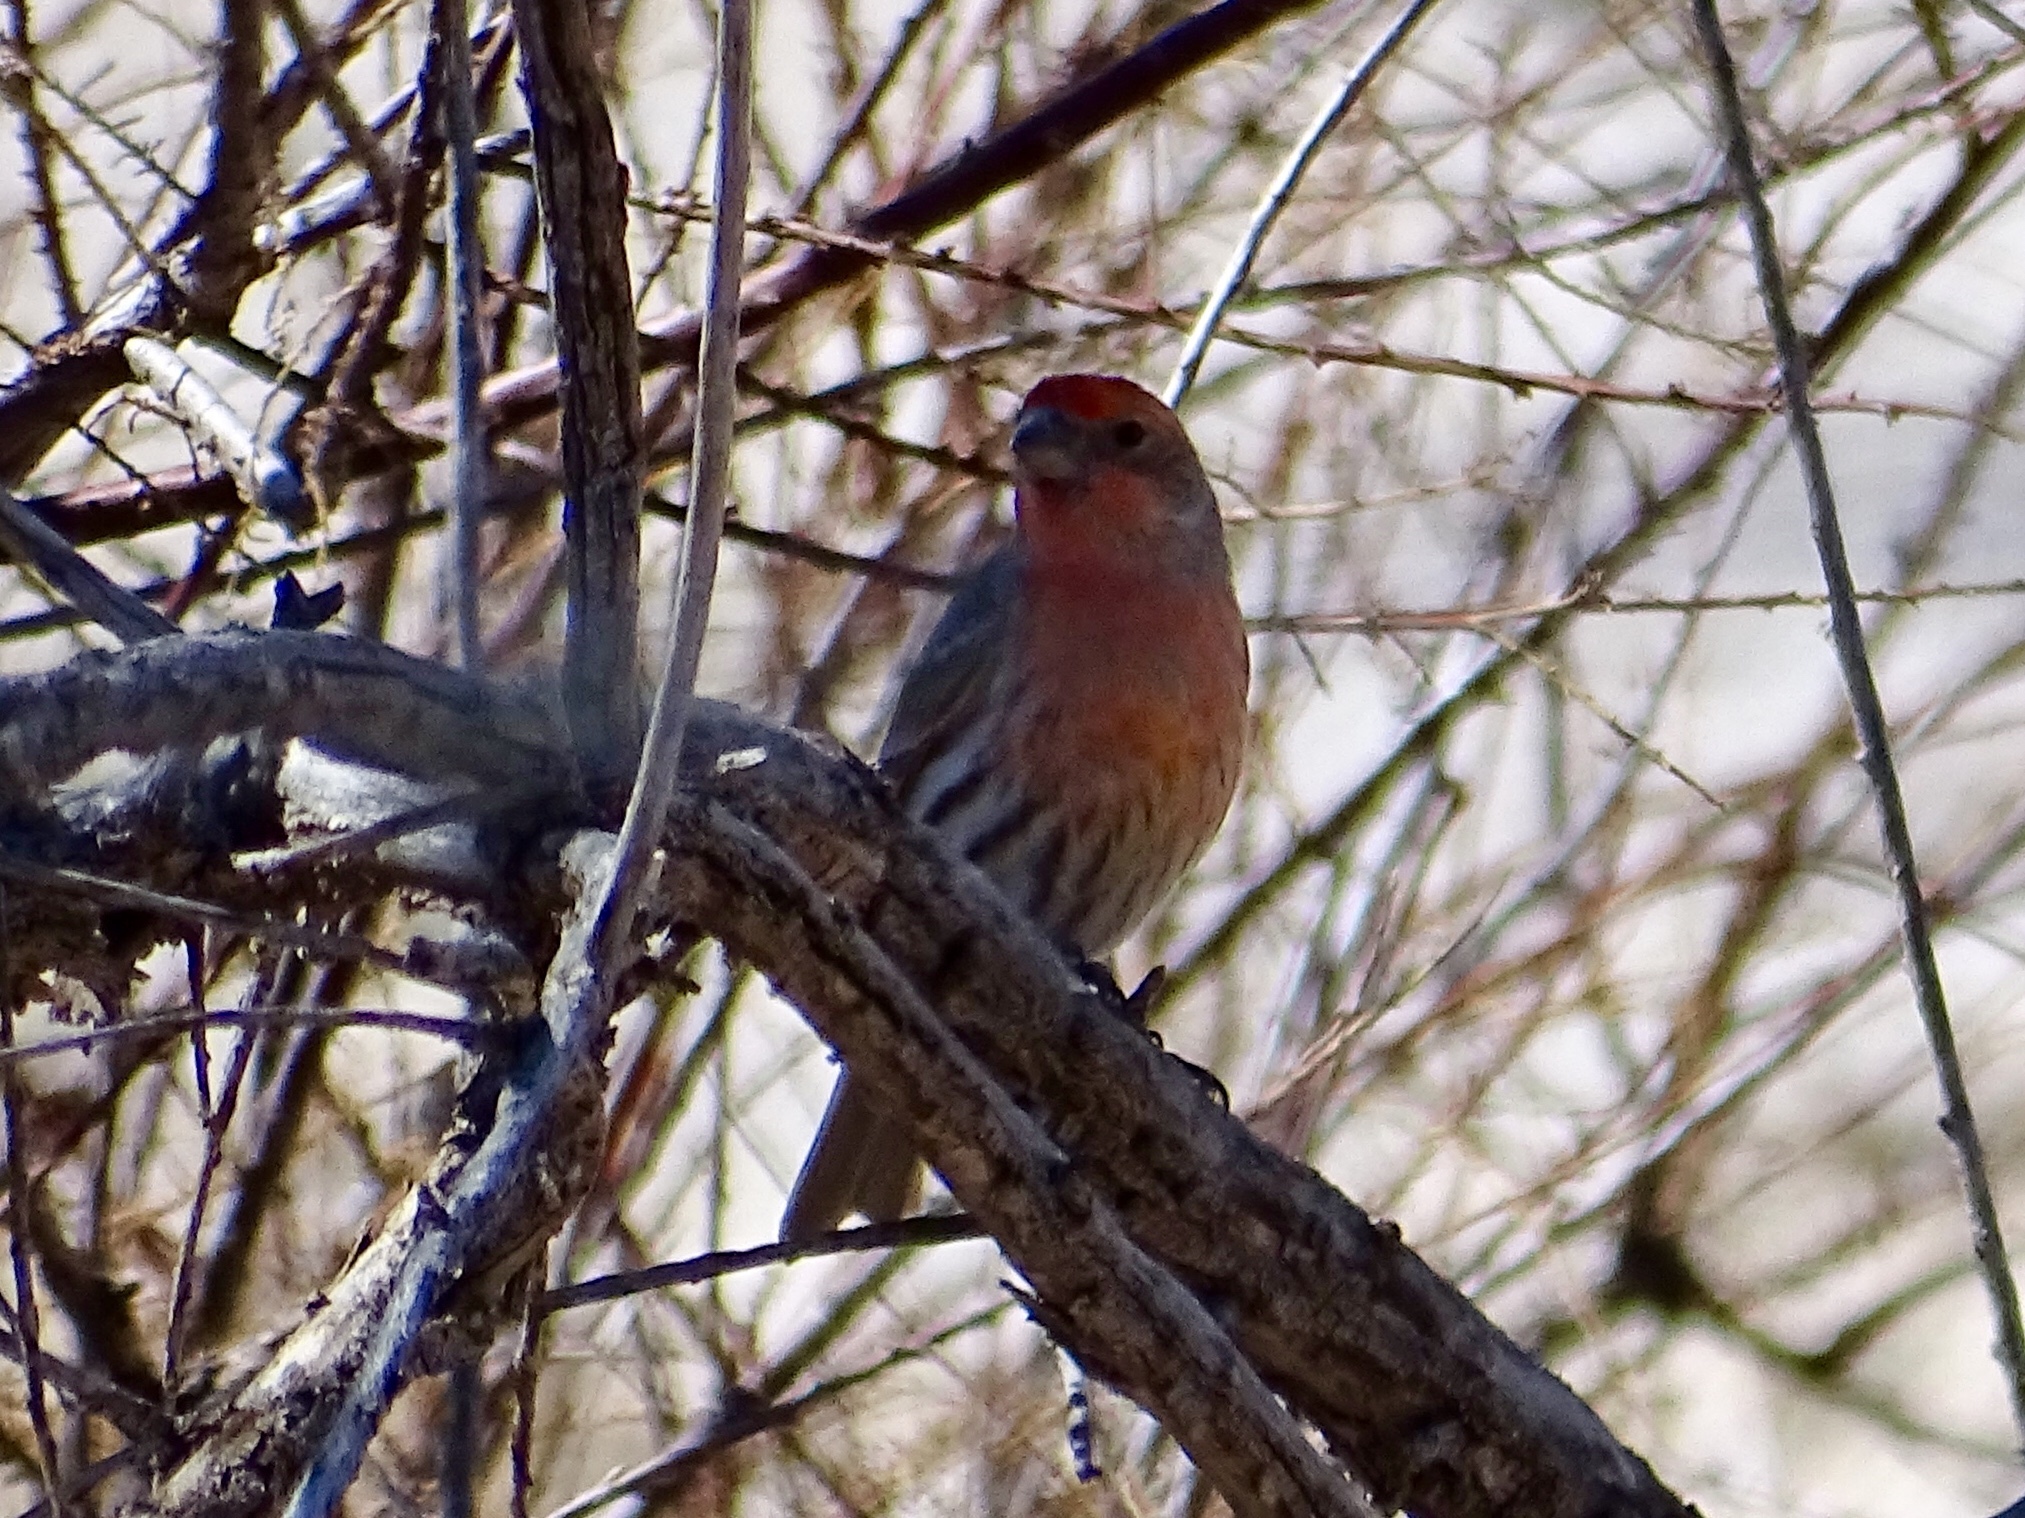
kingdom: Animalia
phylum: Chordata
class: Aves
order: Passeriformes
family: Fringillidae
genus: Haemorhous
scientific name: Haemorhous mexicanus
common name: House finch
